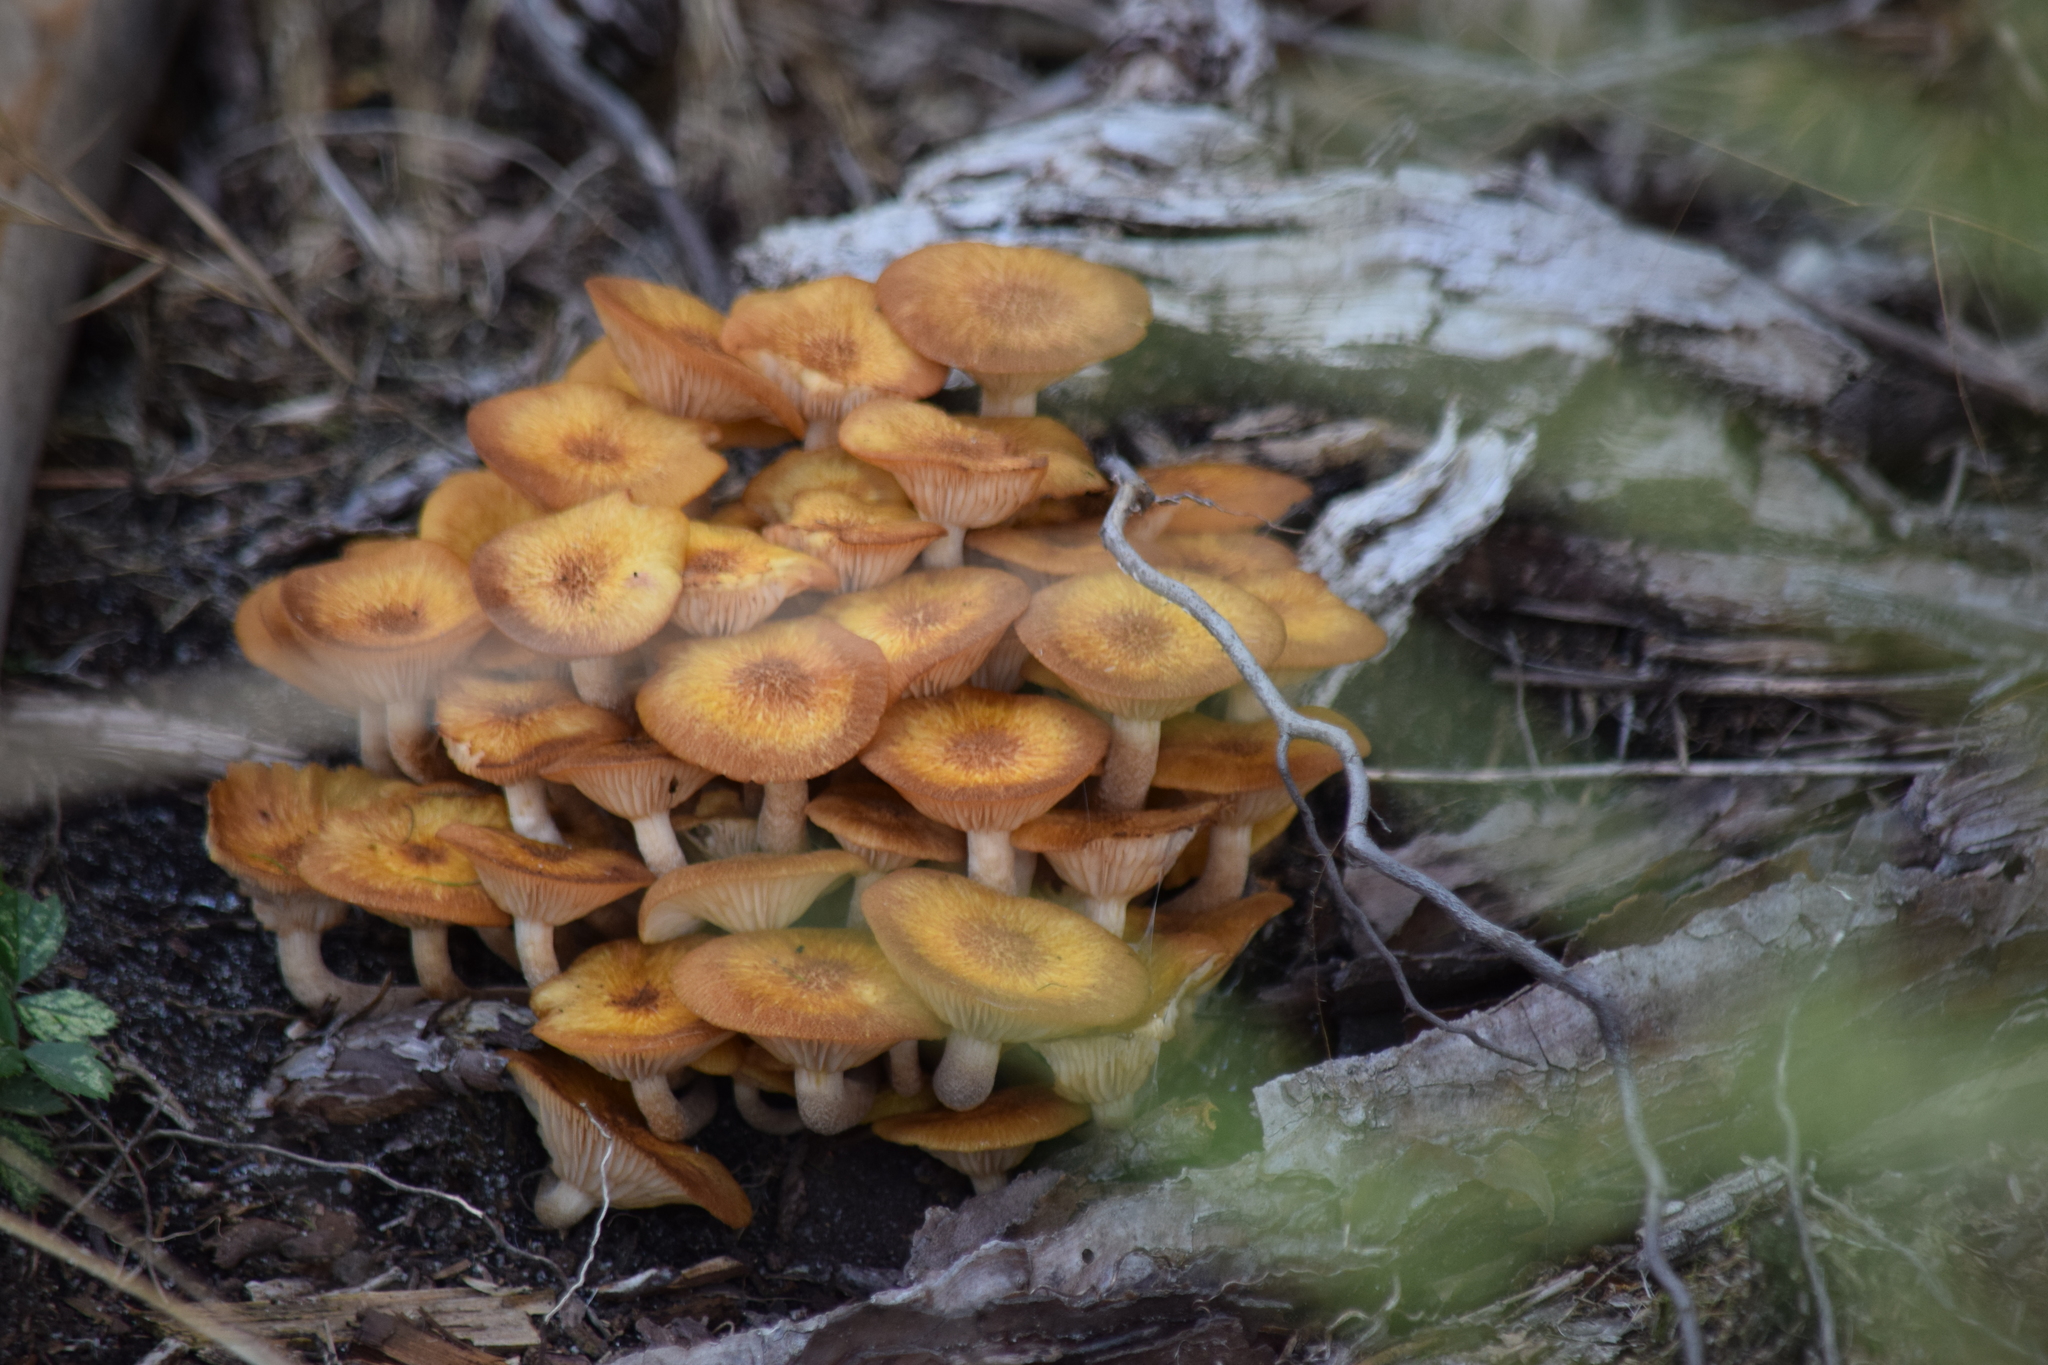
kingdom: Fungi
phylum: Basidiomycota
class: Agaricomycetes
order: Agaricales
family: Physalacriaceae
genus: Desarmillaria
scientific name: Desarmillaria caespitosa
